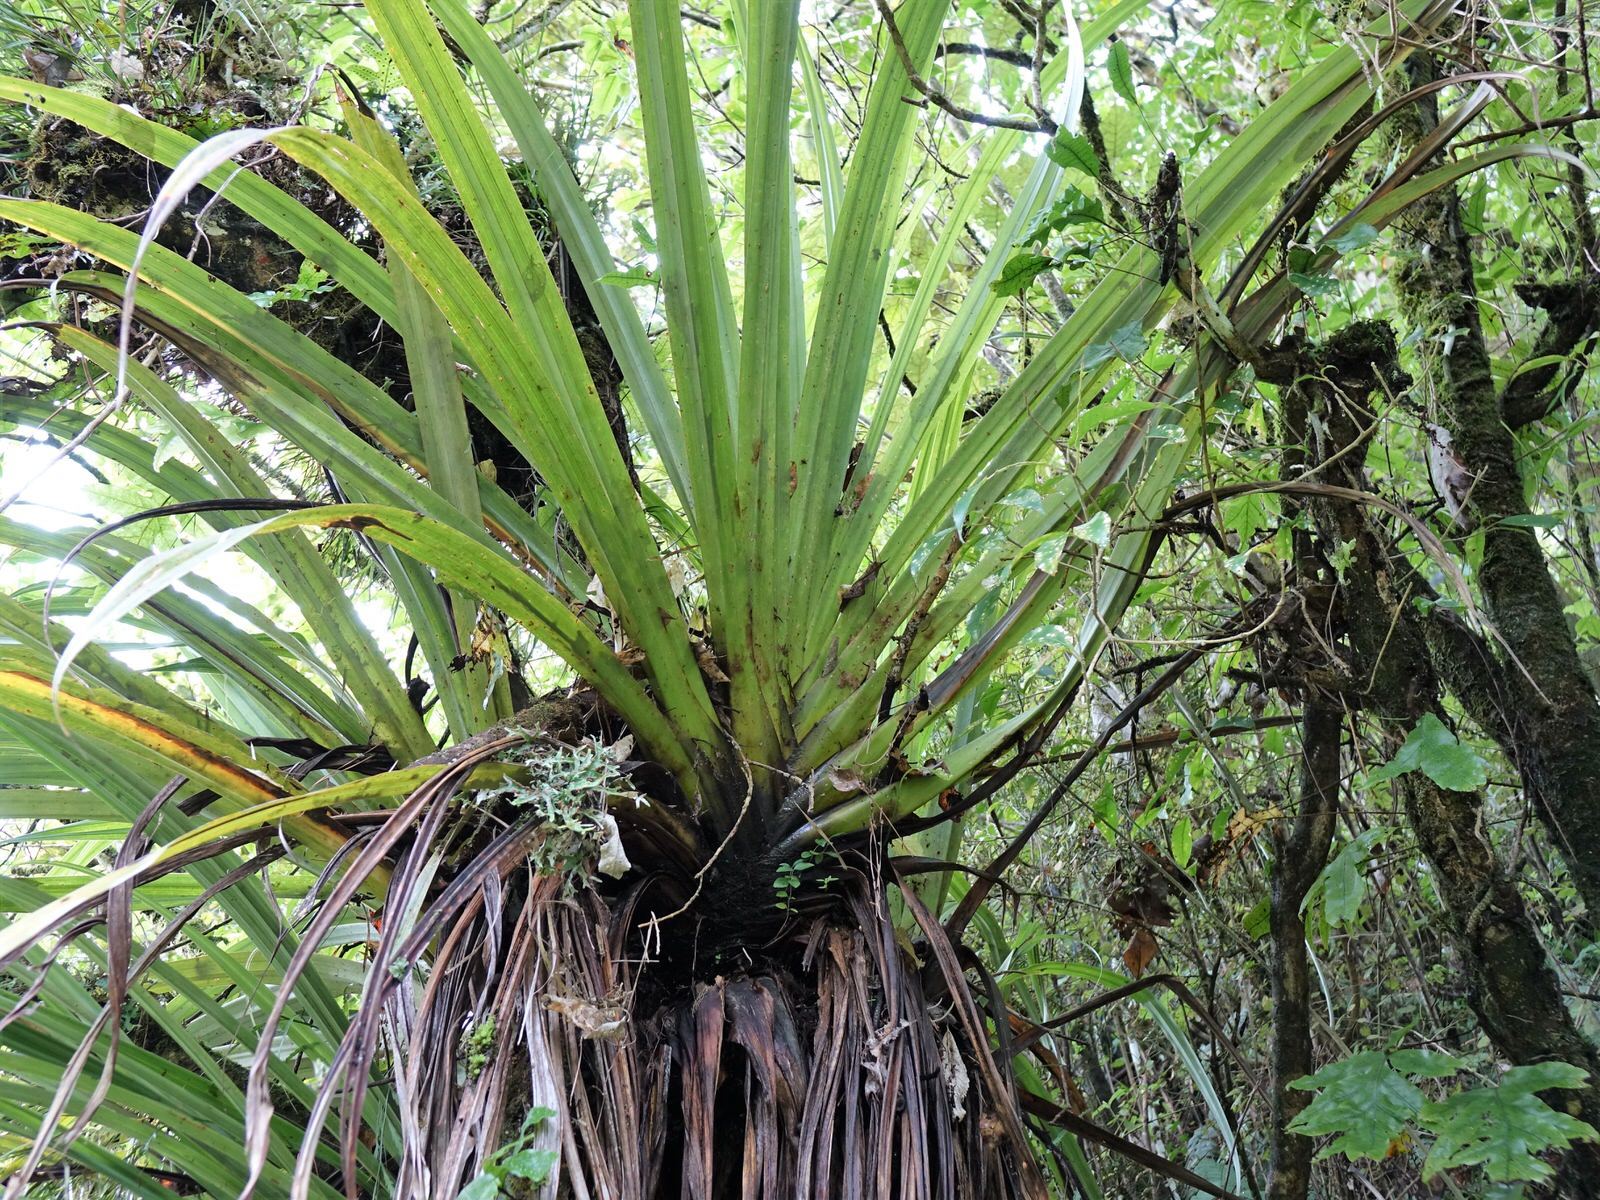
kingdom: Plantae
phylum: Tracheophyta
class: Liliopsida
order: Asparagales
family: Asteliaceae
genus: Astelia
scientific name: Astelia hastata
